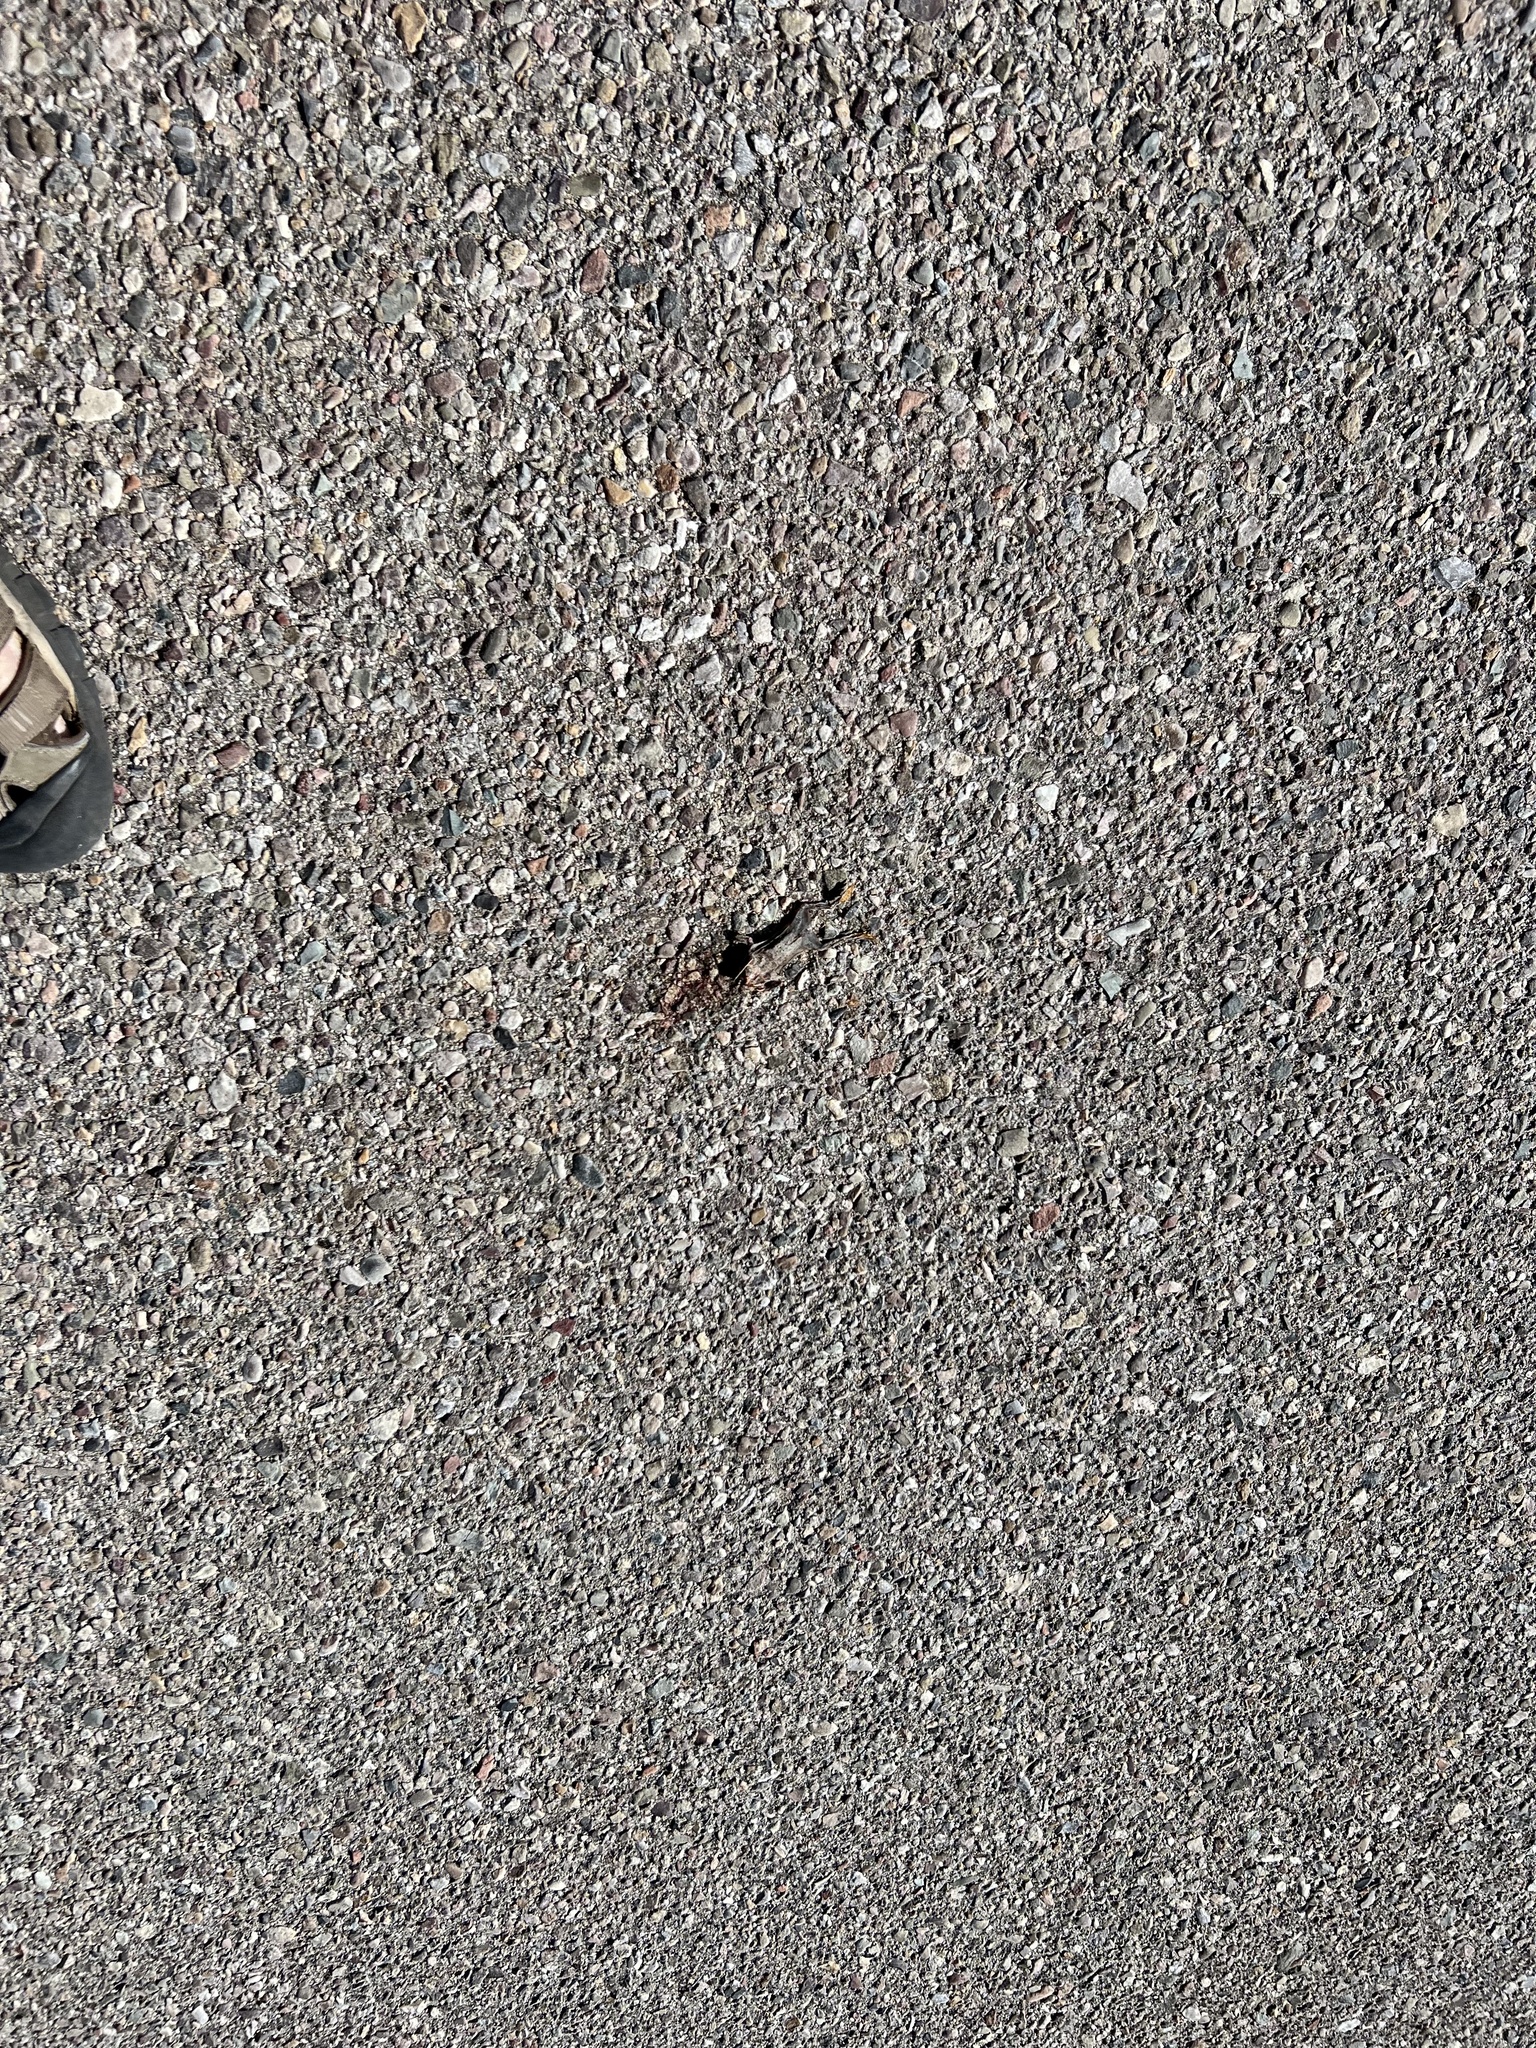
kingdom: Animalia
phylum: Chordata
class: Amphibia
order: Anura
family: Bufonidae
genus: Anaxyrus
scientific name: Anaxyrus punctatus
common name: Red-spotted toad
